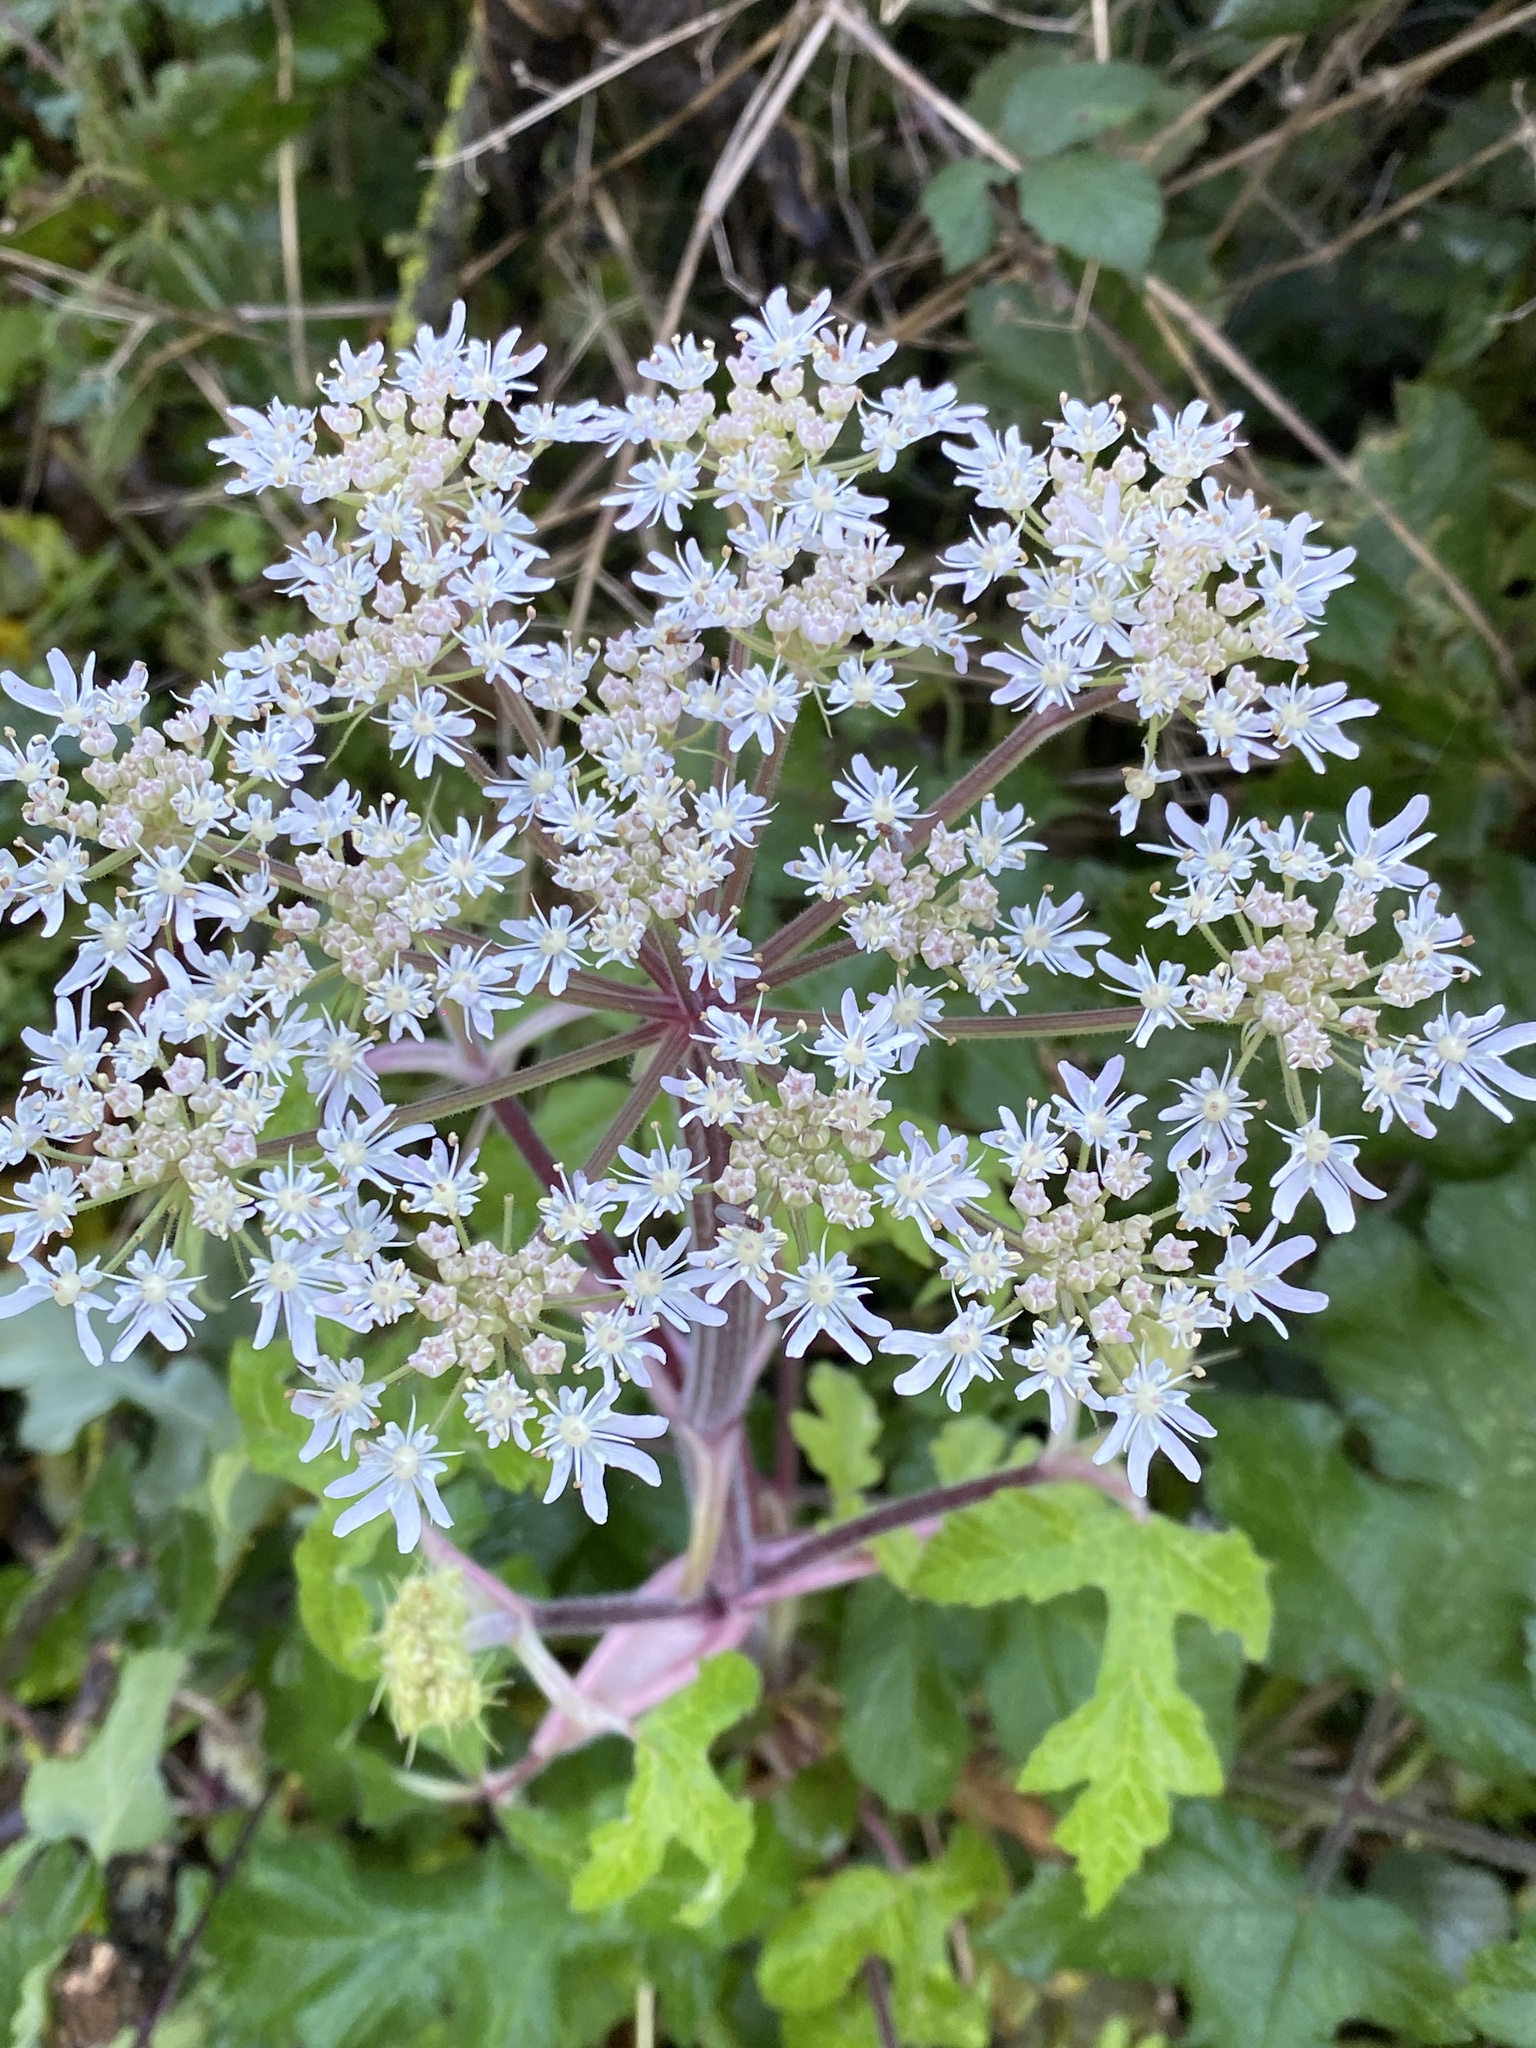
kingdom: Plantae
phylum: Tracheophyta
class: Magnoliopsida
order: Apiales
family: Apiaceae
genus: Heracleum
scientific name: Heracleum sphondylium
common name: Hogweed
